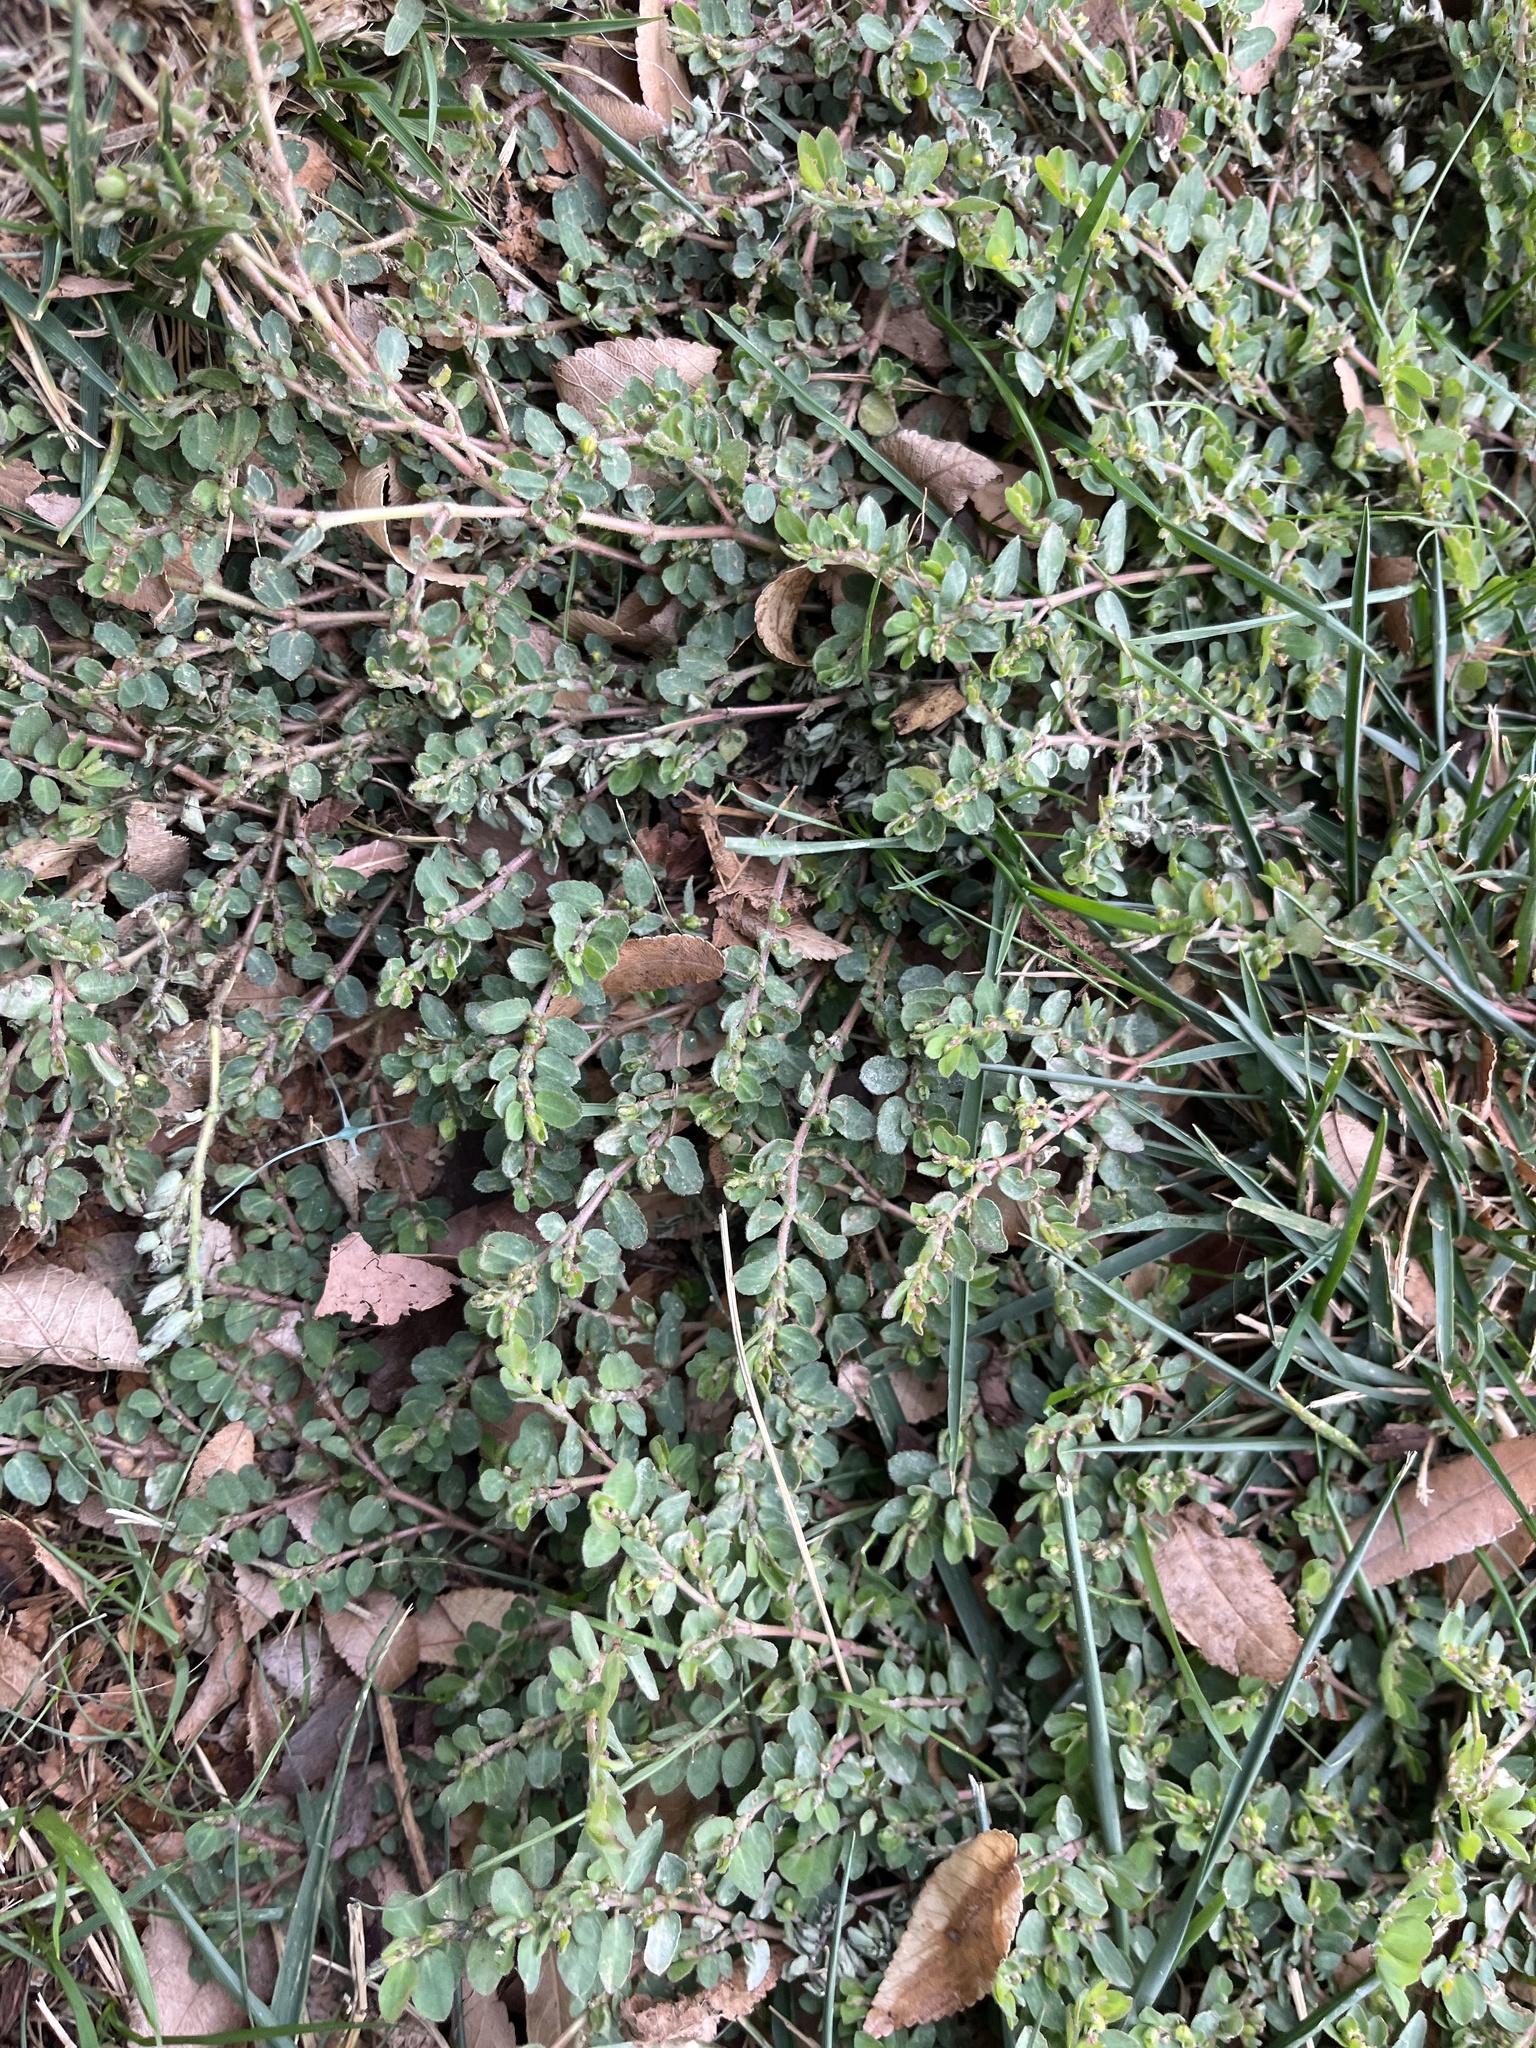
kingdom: Plantae
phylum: Tracheophyta
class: Magnoliopsida
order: Malpighiales
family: Euphorbiaceae
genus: Euphorbia
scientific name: Euphorbia prostrata
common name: Prostrate sandmat
